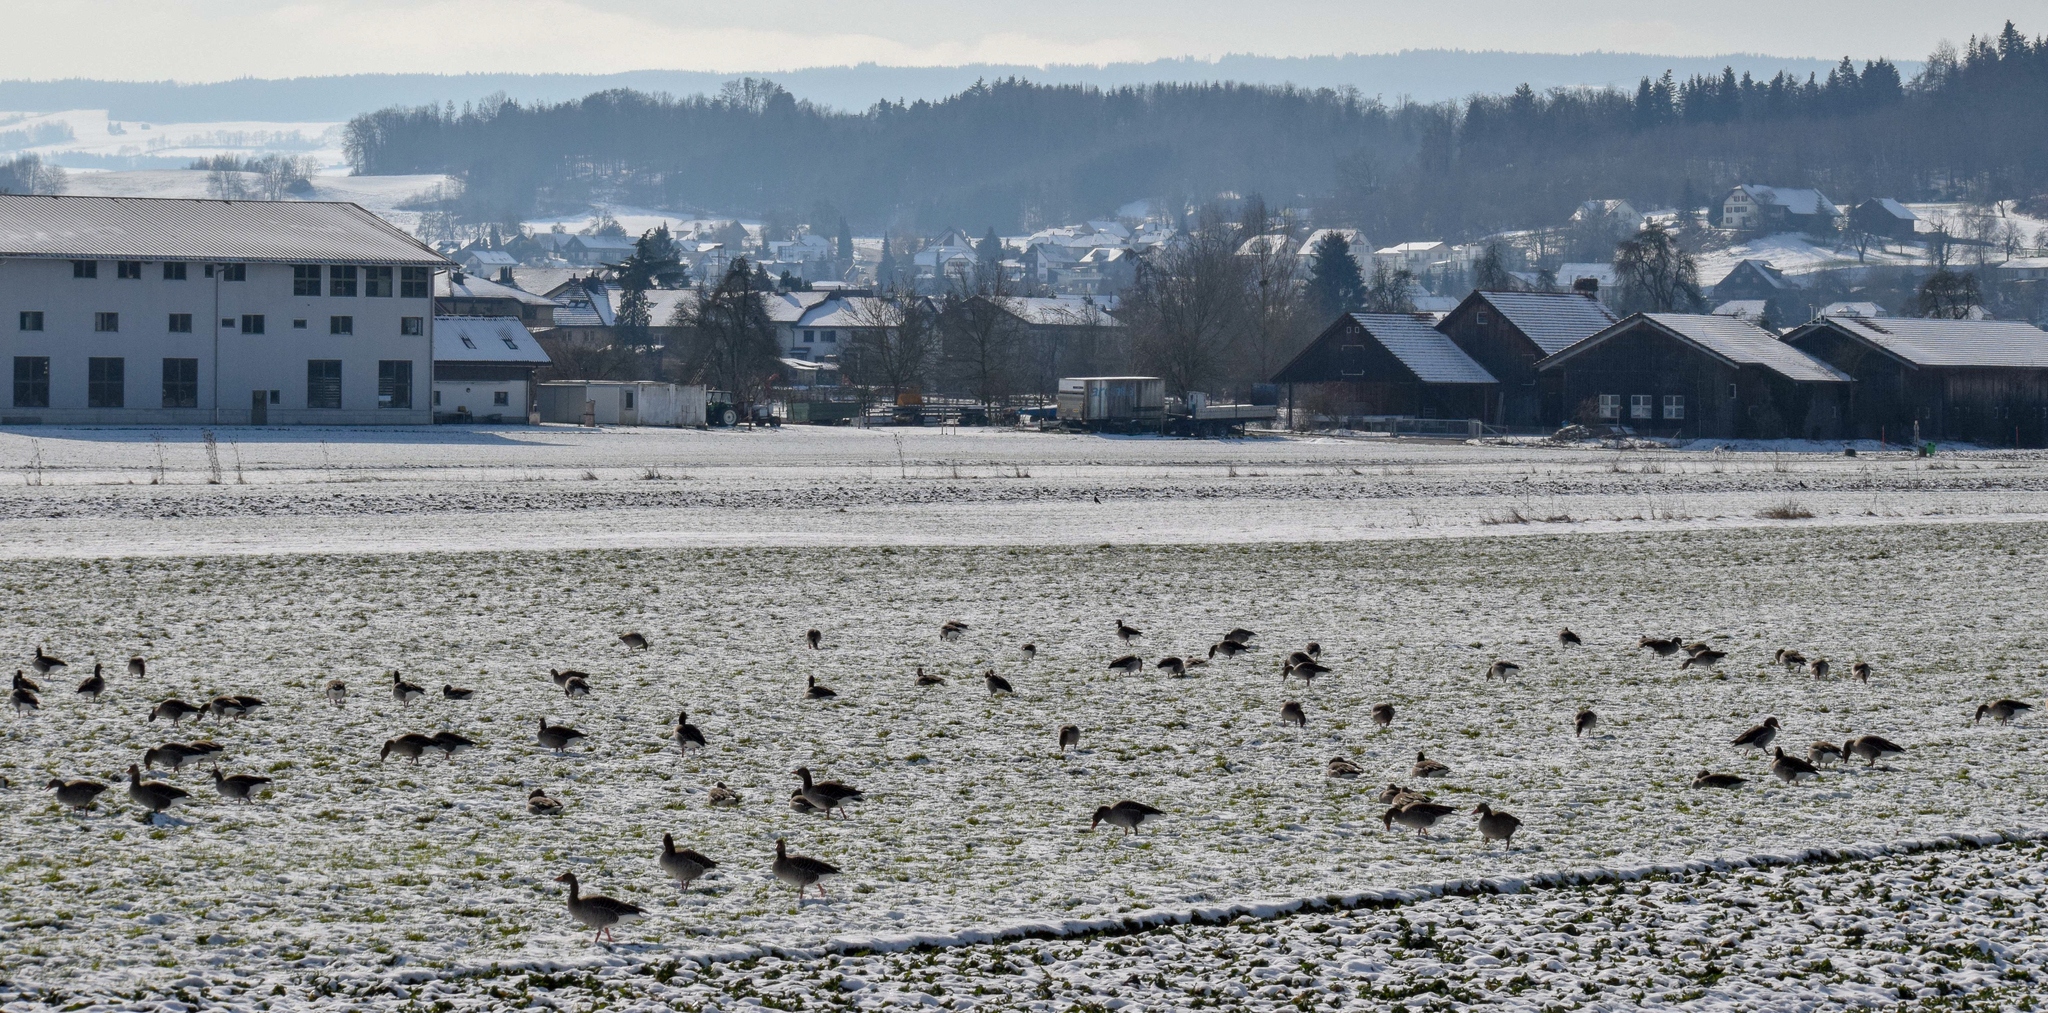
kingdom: Animalia
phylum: Chordata
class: Aves
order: Anseriformes
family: Anatidae
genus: Anser
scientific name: Anser anser
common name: Greylag goose
